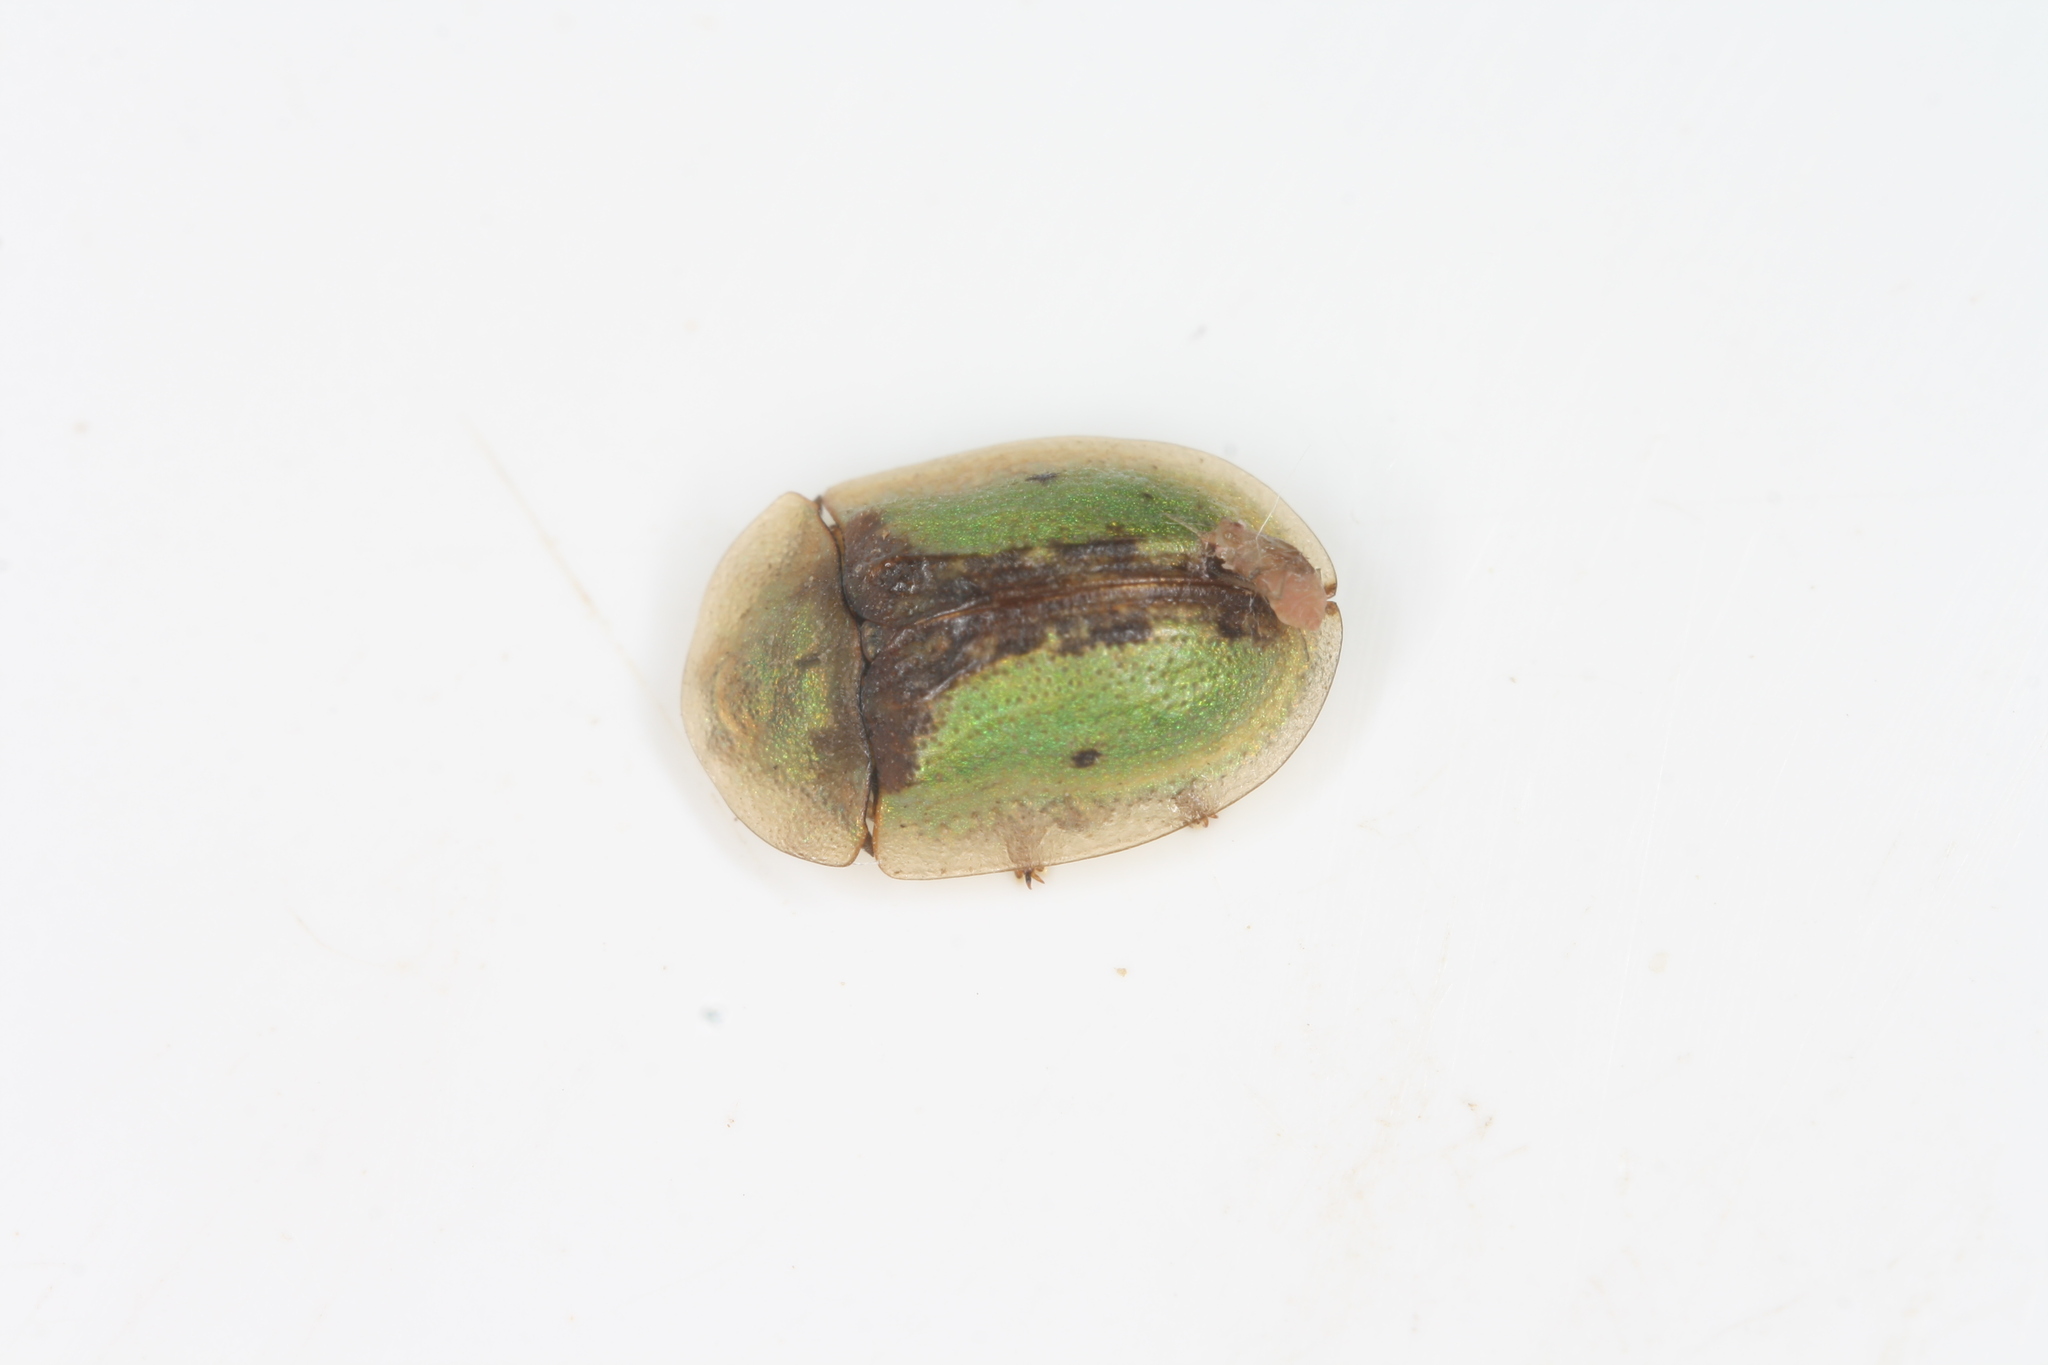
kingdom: Animalia
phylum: Arthropoda
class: Insecta
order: Coleoptera
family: Chrysomelidae
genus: Cassida
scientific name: Cassida vibex
